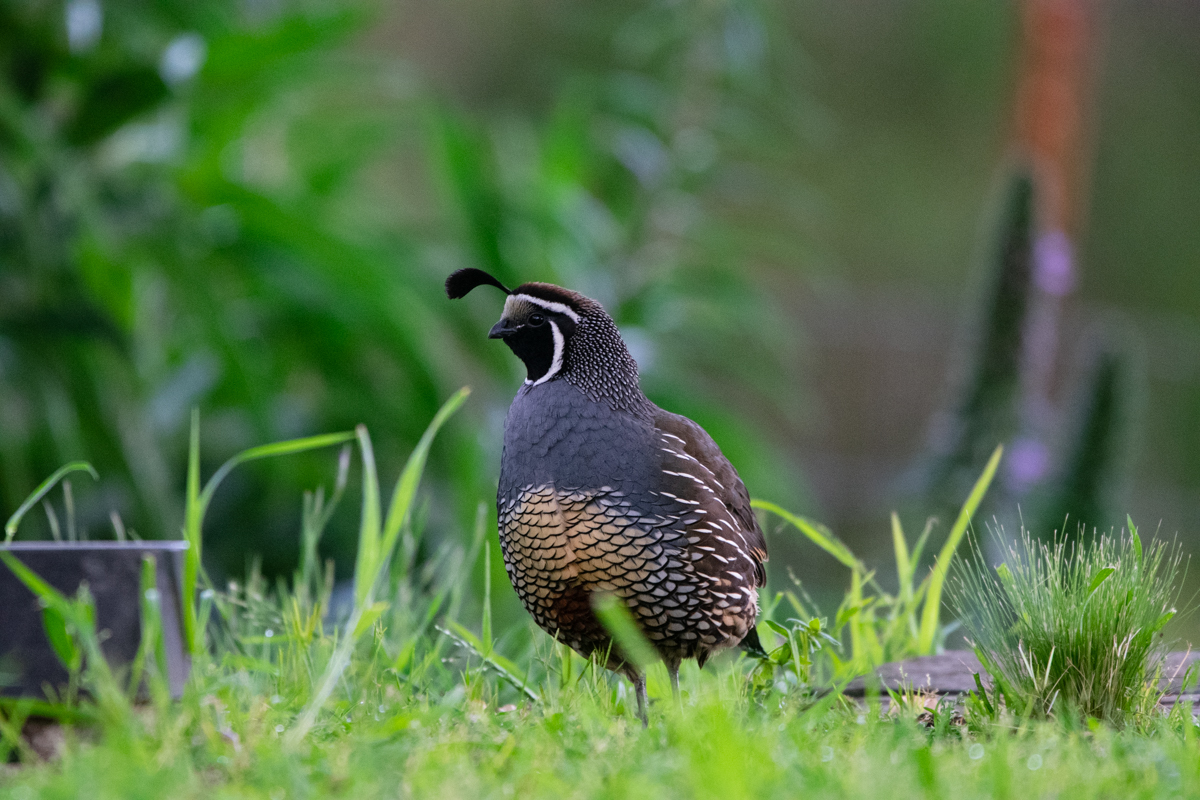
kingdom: Animalia
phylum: Chordata
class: Aves
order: Galliformes
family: Odontophoridae
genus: Callipepla
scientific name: Callipepla californica
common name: California quail
